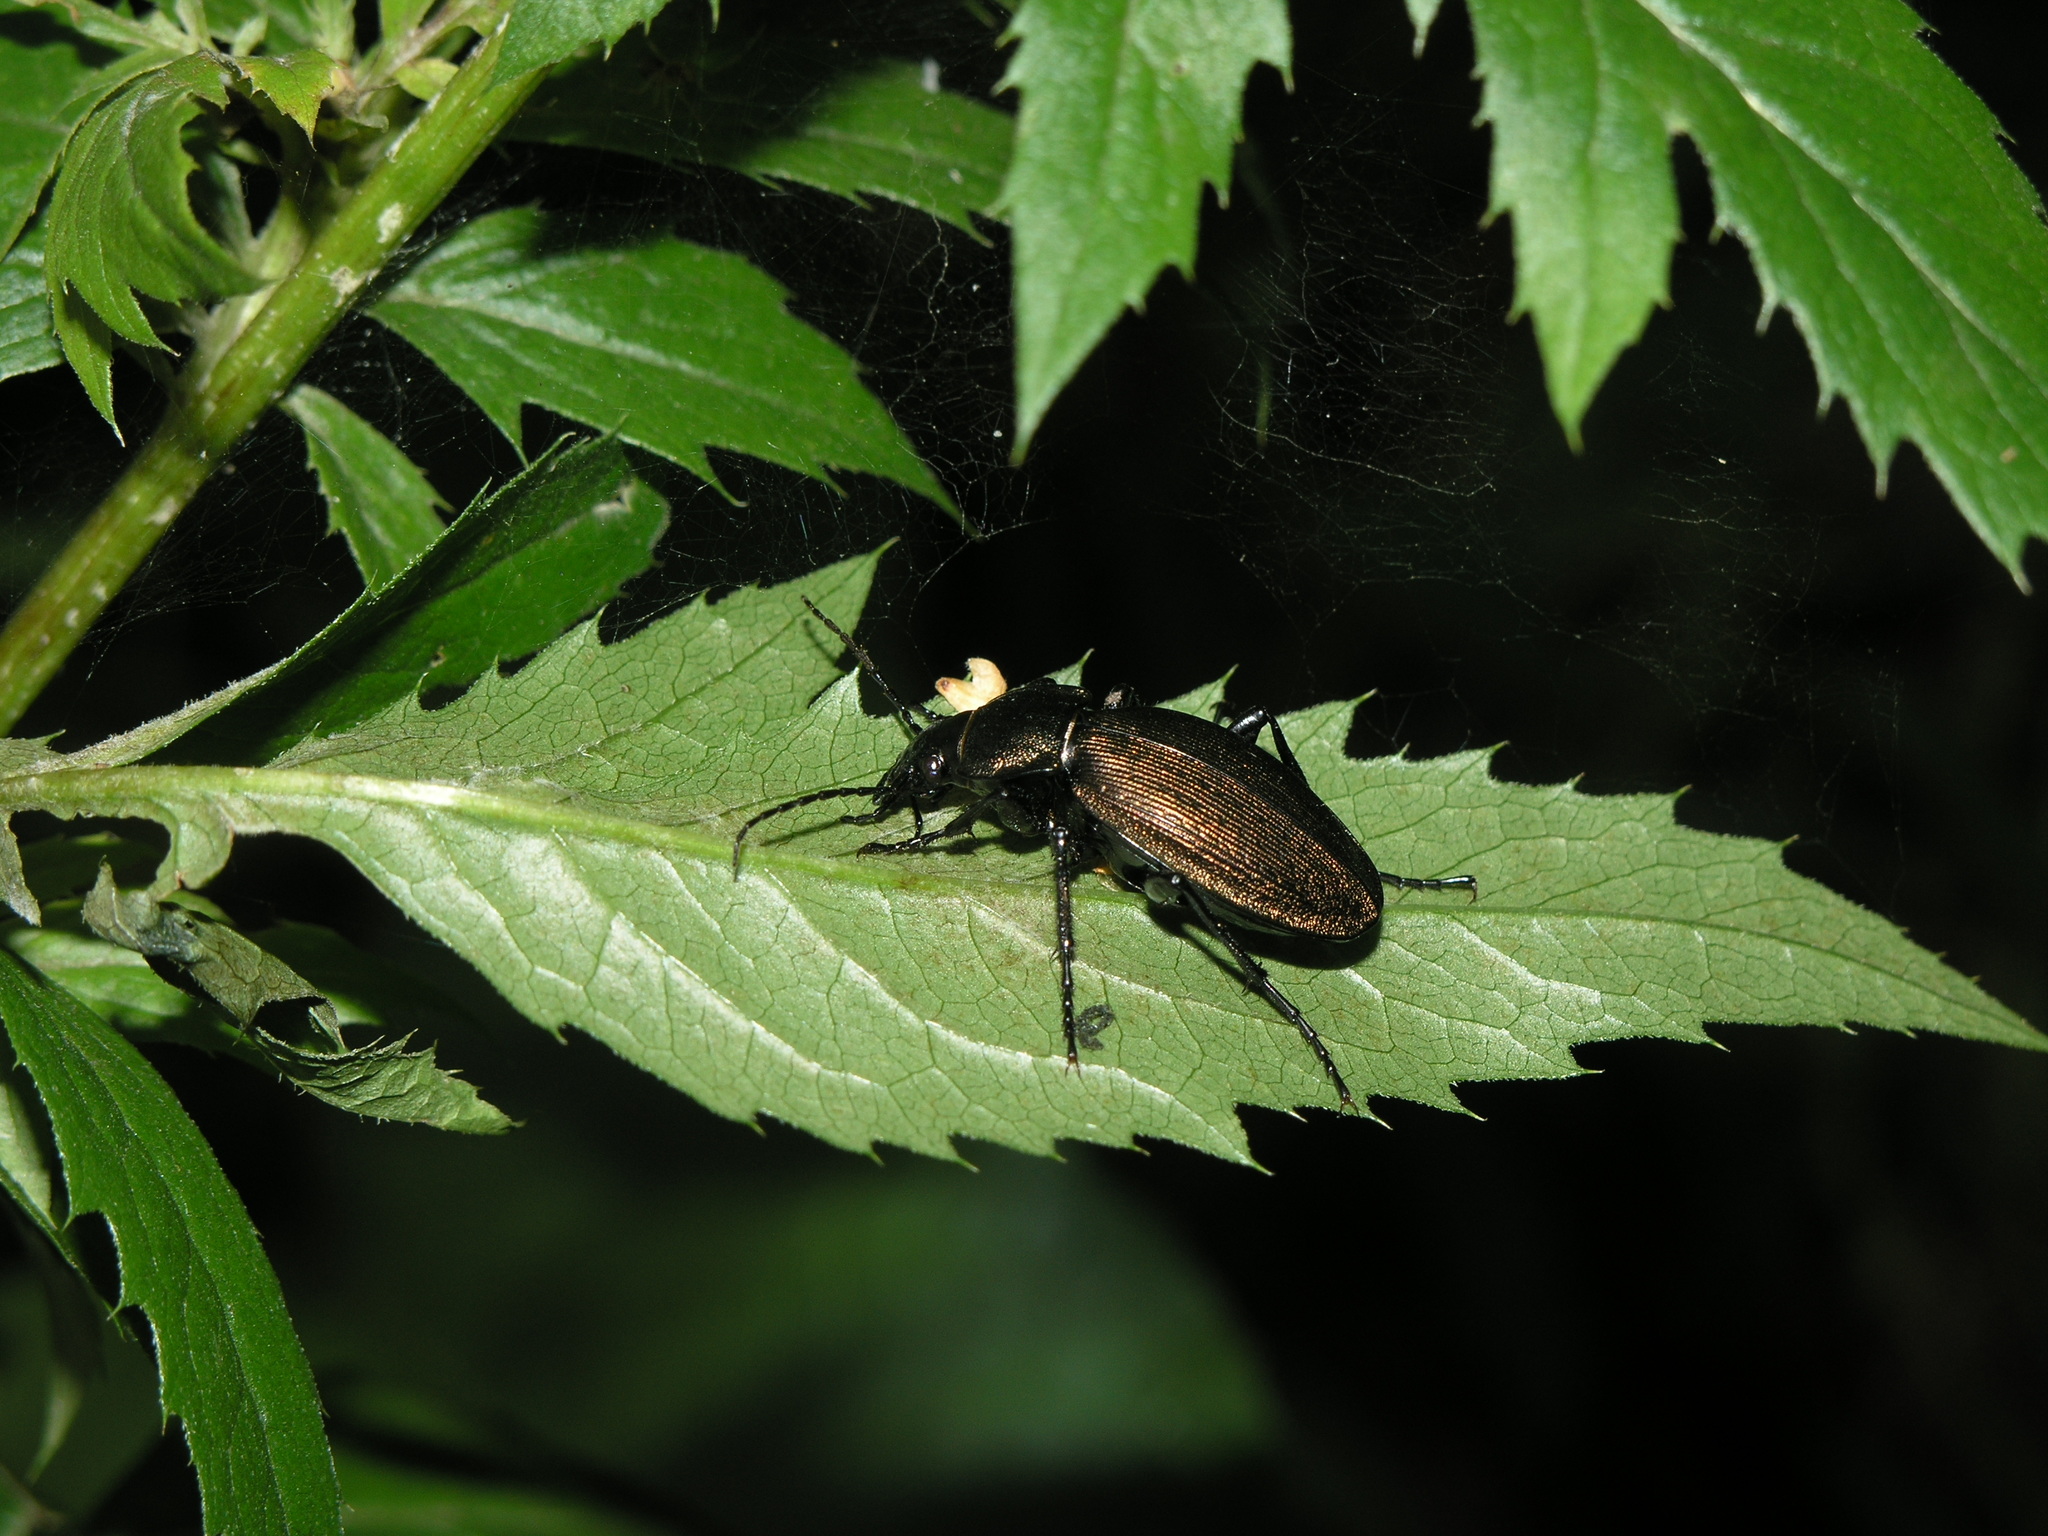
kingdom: Animalia
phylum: Arthropoda
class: Insecta
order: Coleoptera
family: Carabidae
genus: Carabus
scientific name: Carabus regalis
